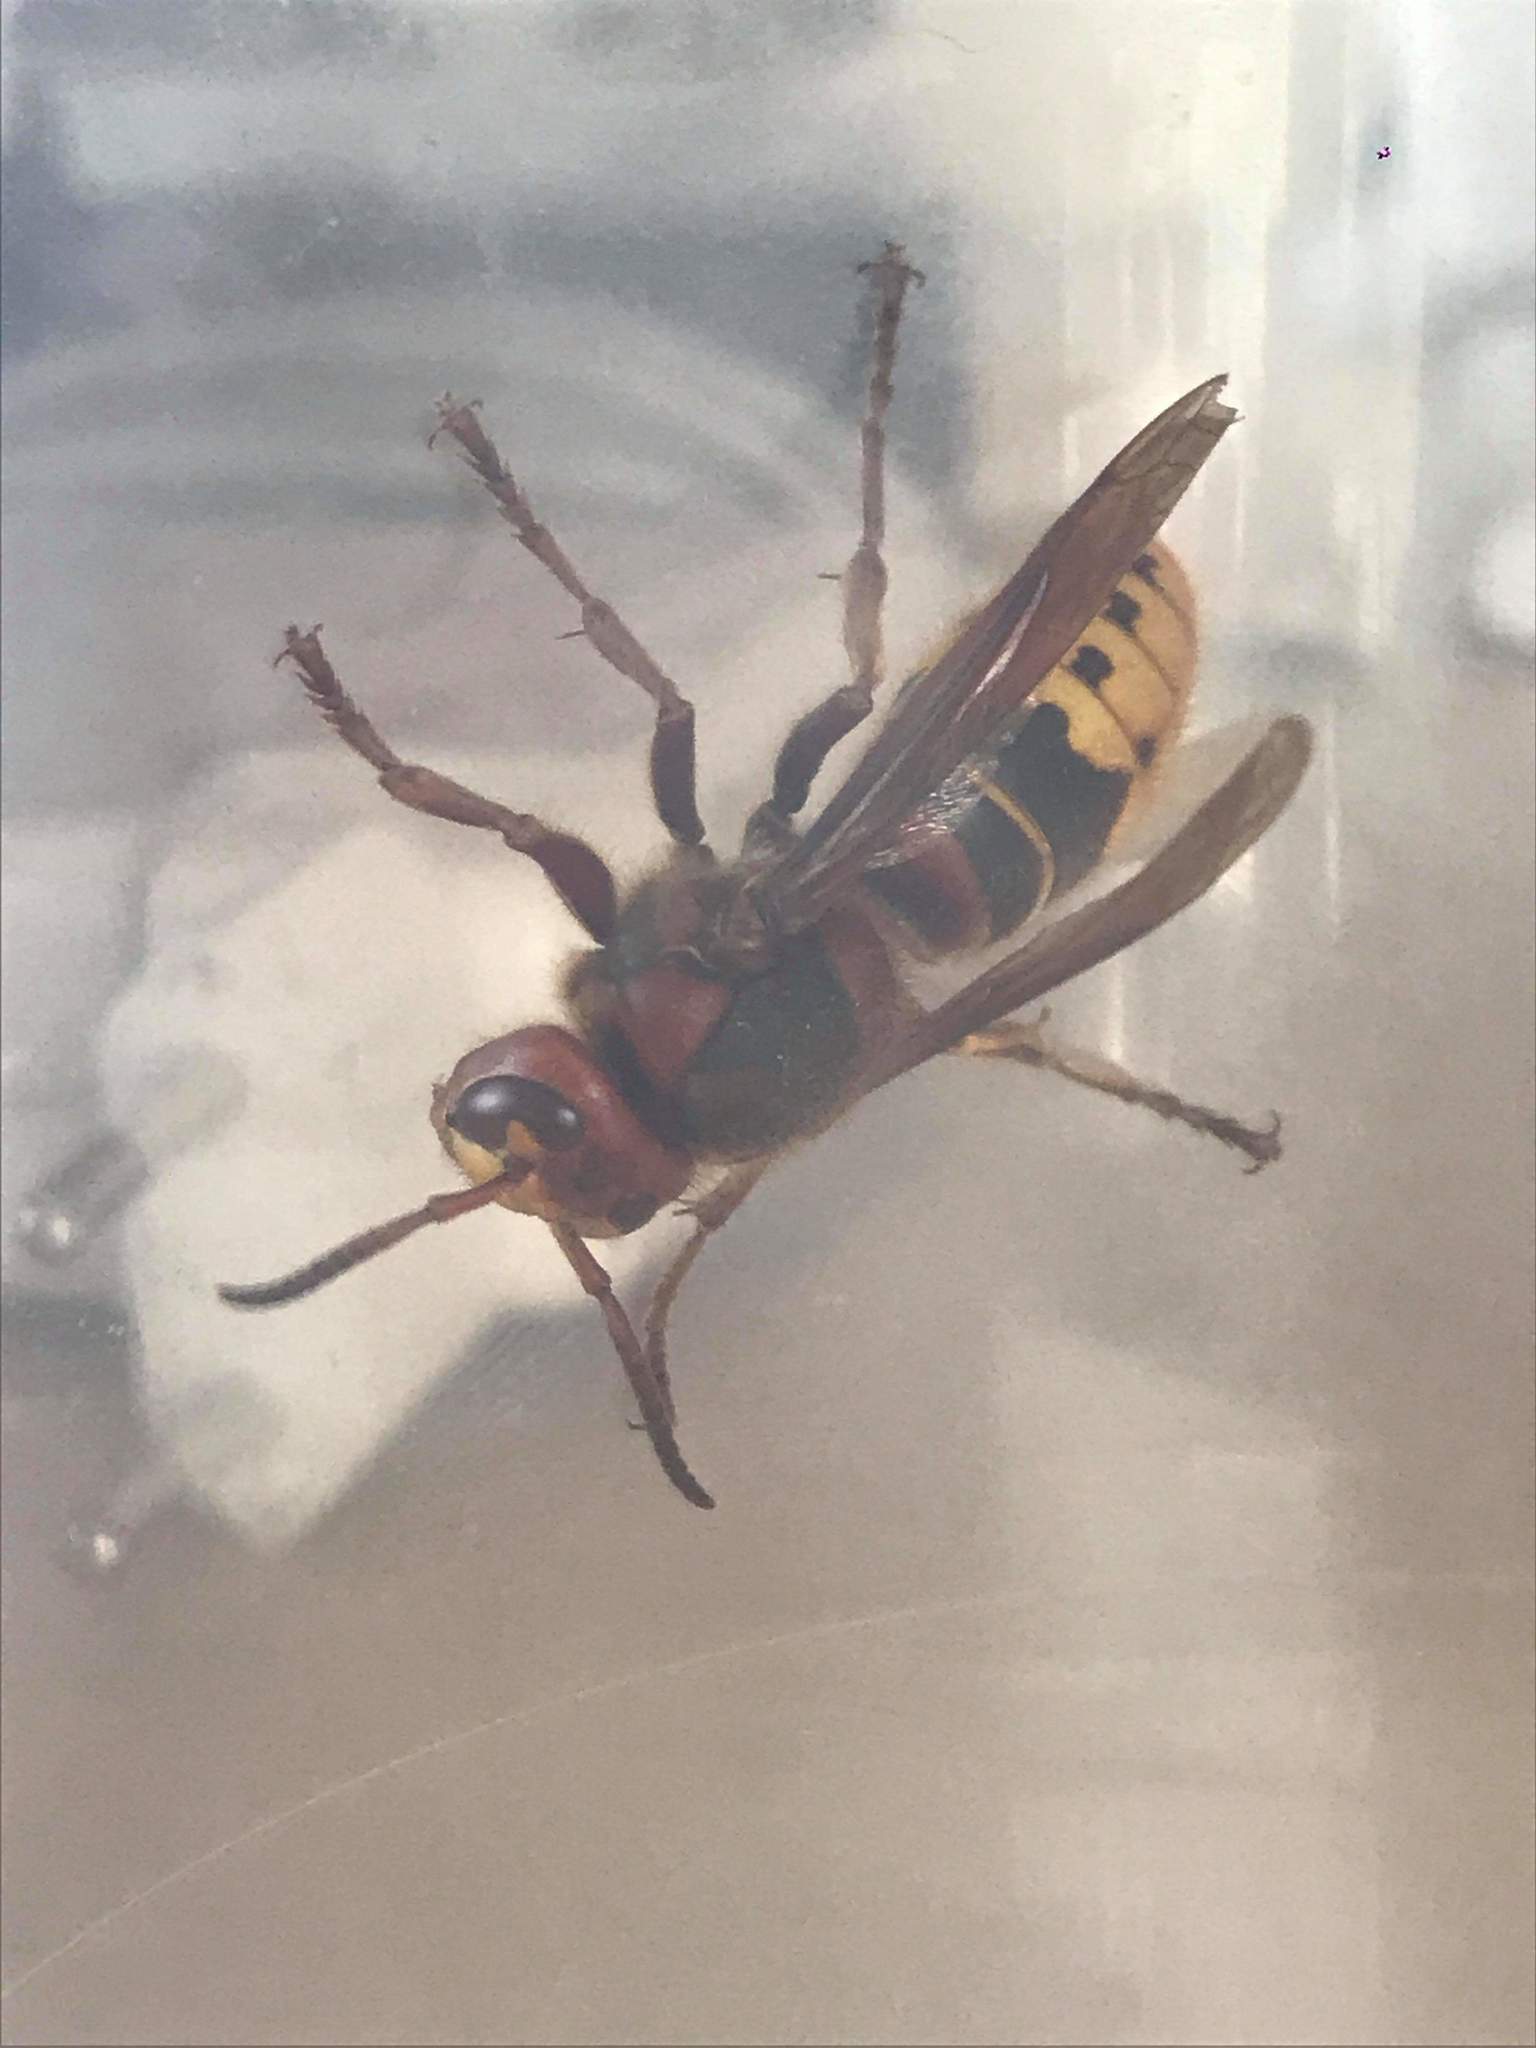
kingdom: Animalia
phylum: Arthropoda
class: Insecta
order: Hymenoptera
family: Vespidae
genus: Vespa
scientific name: Vespa crabro
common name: Hornet
